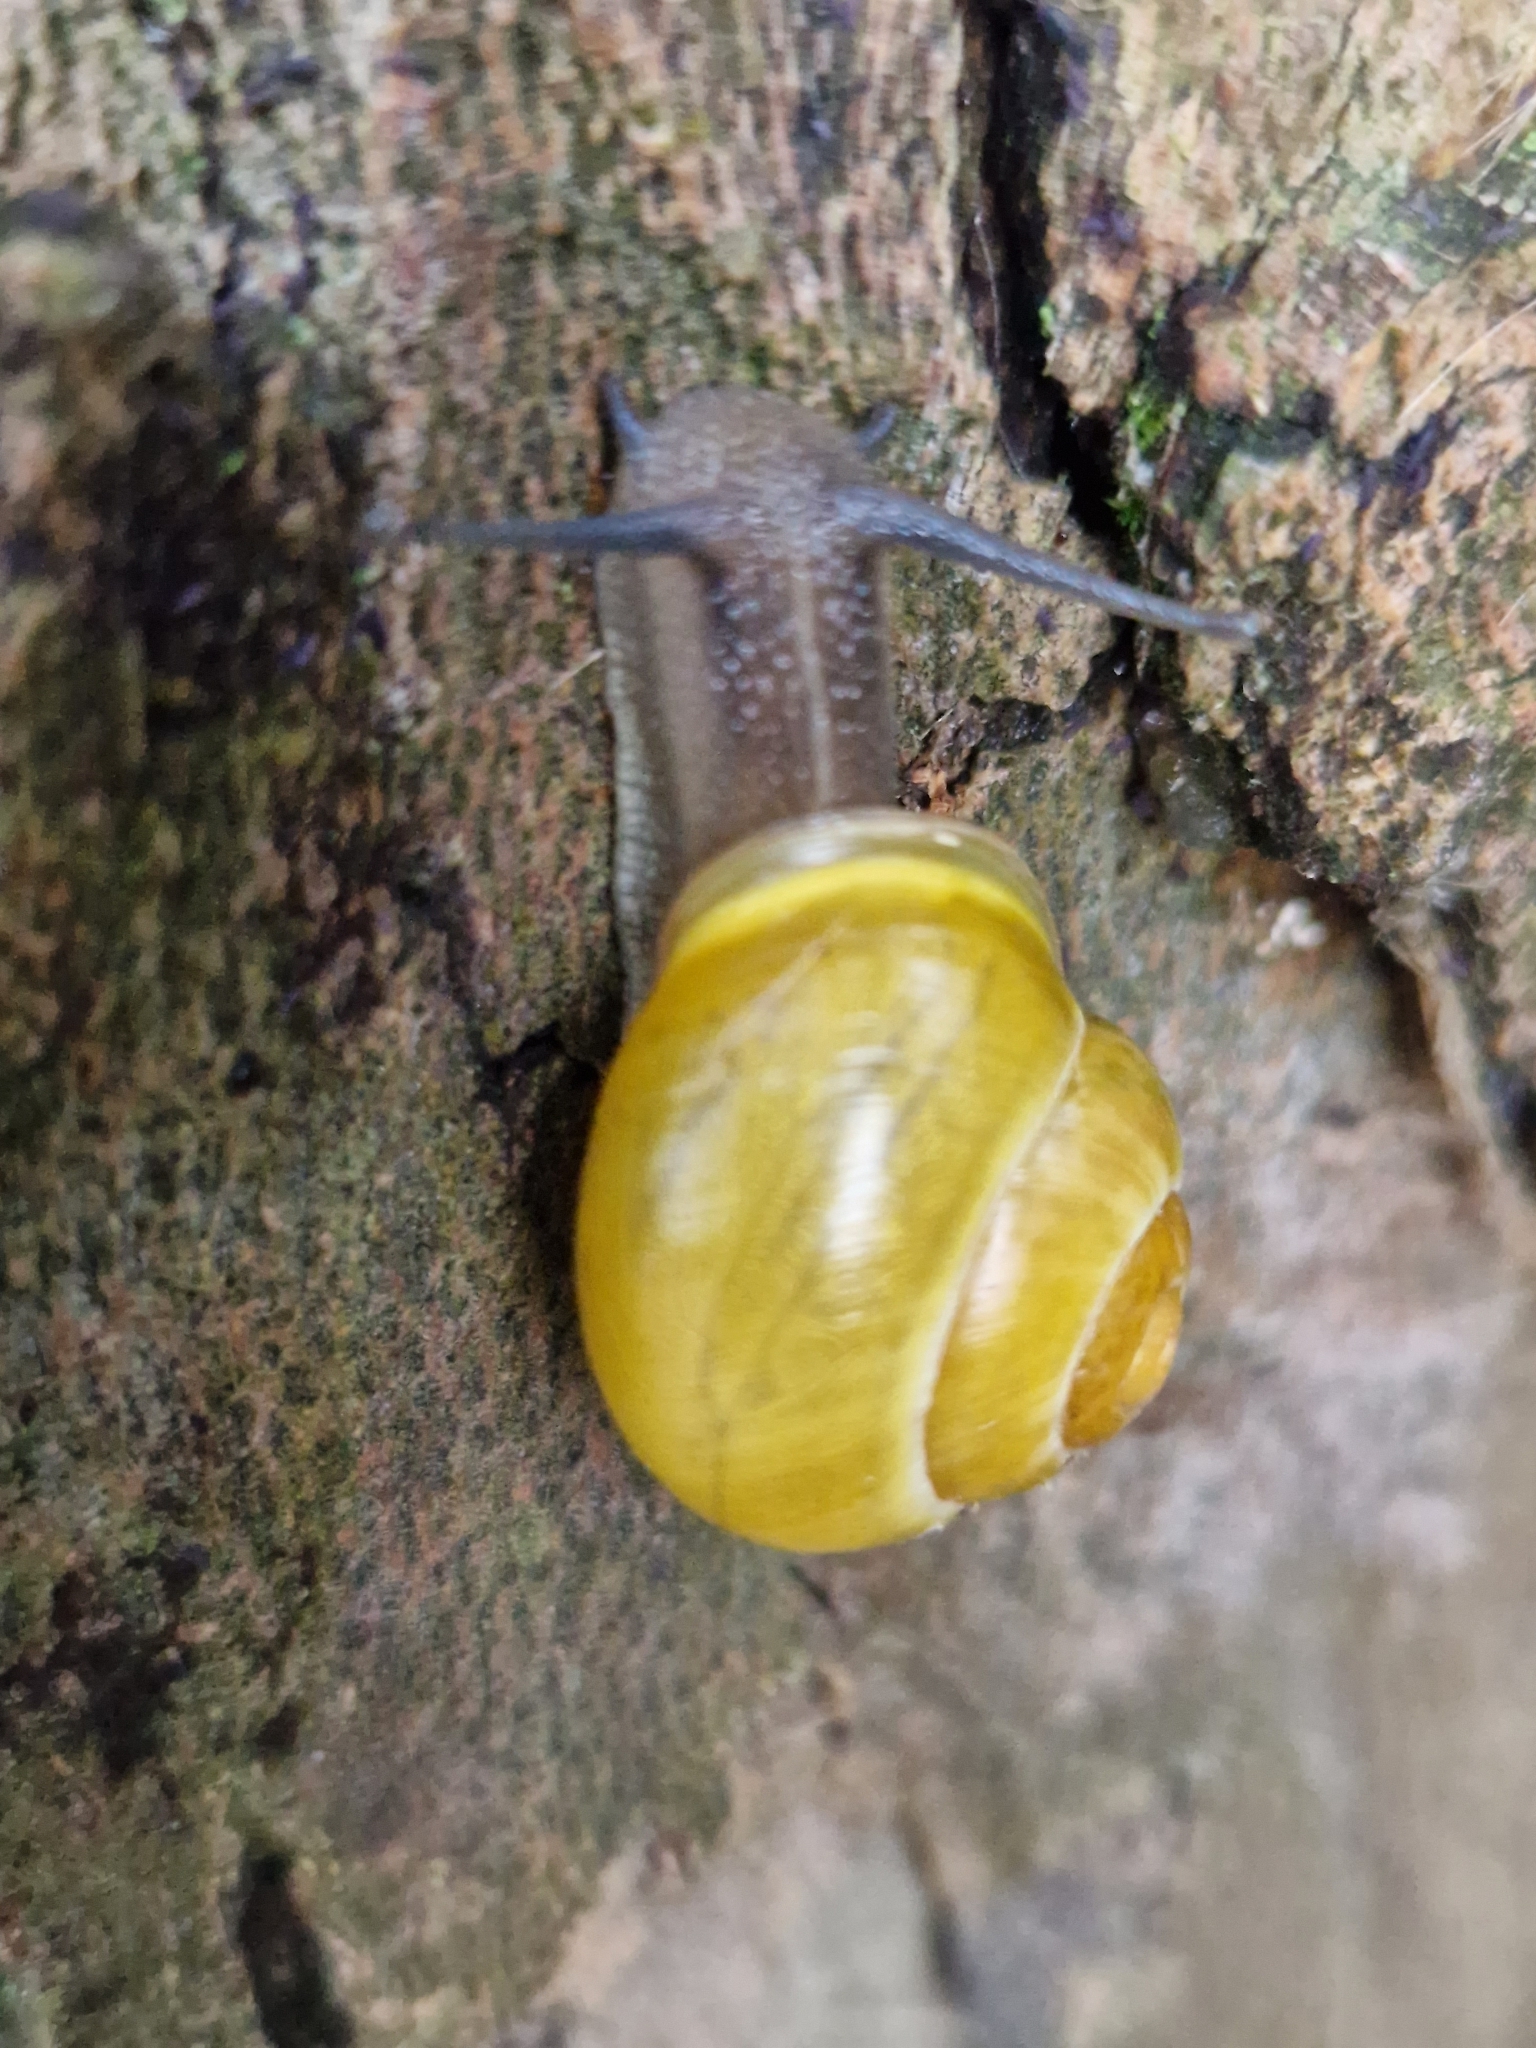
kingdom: Animalia
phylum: Mollusca
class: Gastropoda
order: Stylommatophora
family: Helicidae
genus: Cepaea
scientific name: Cepaea hortensis
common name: White-lip gardensnail
